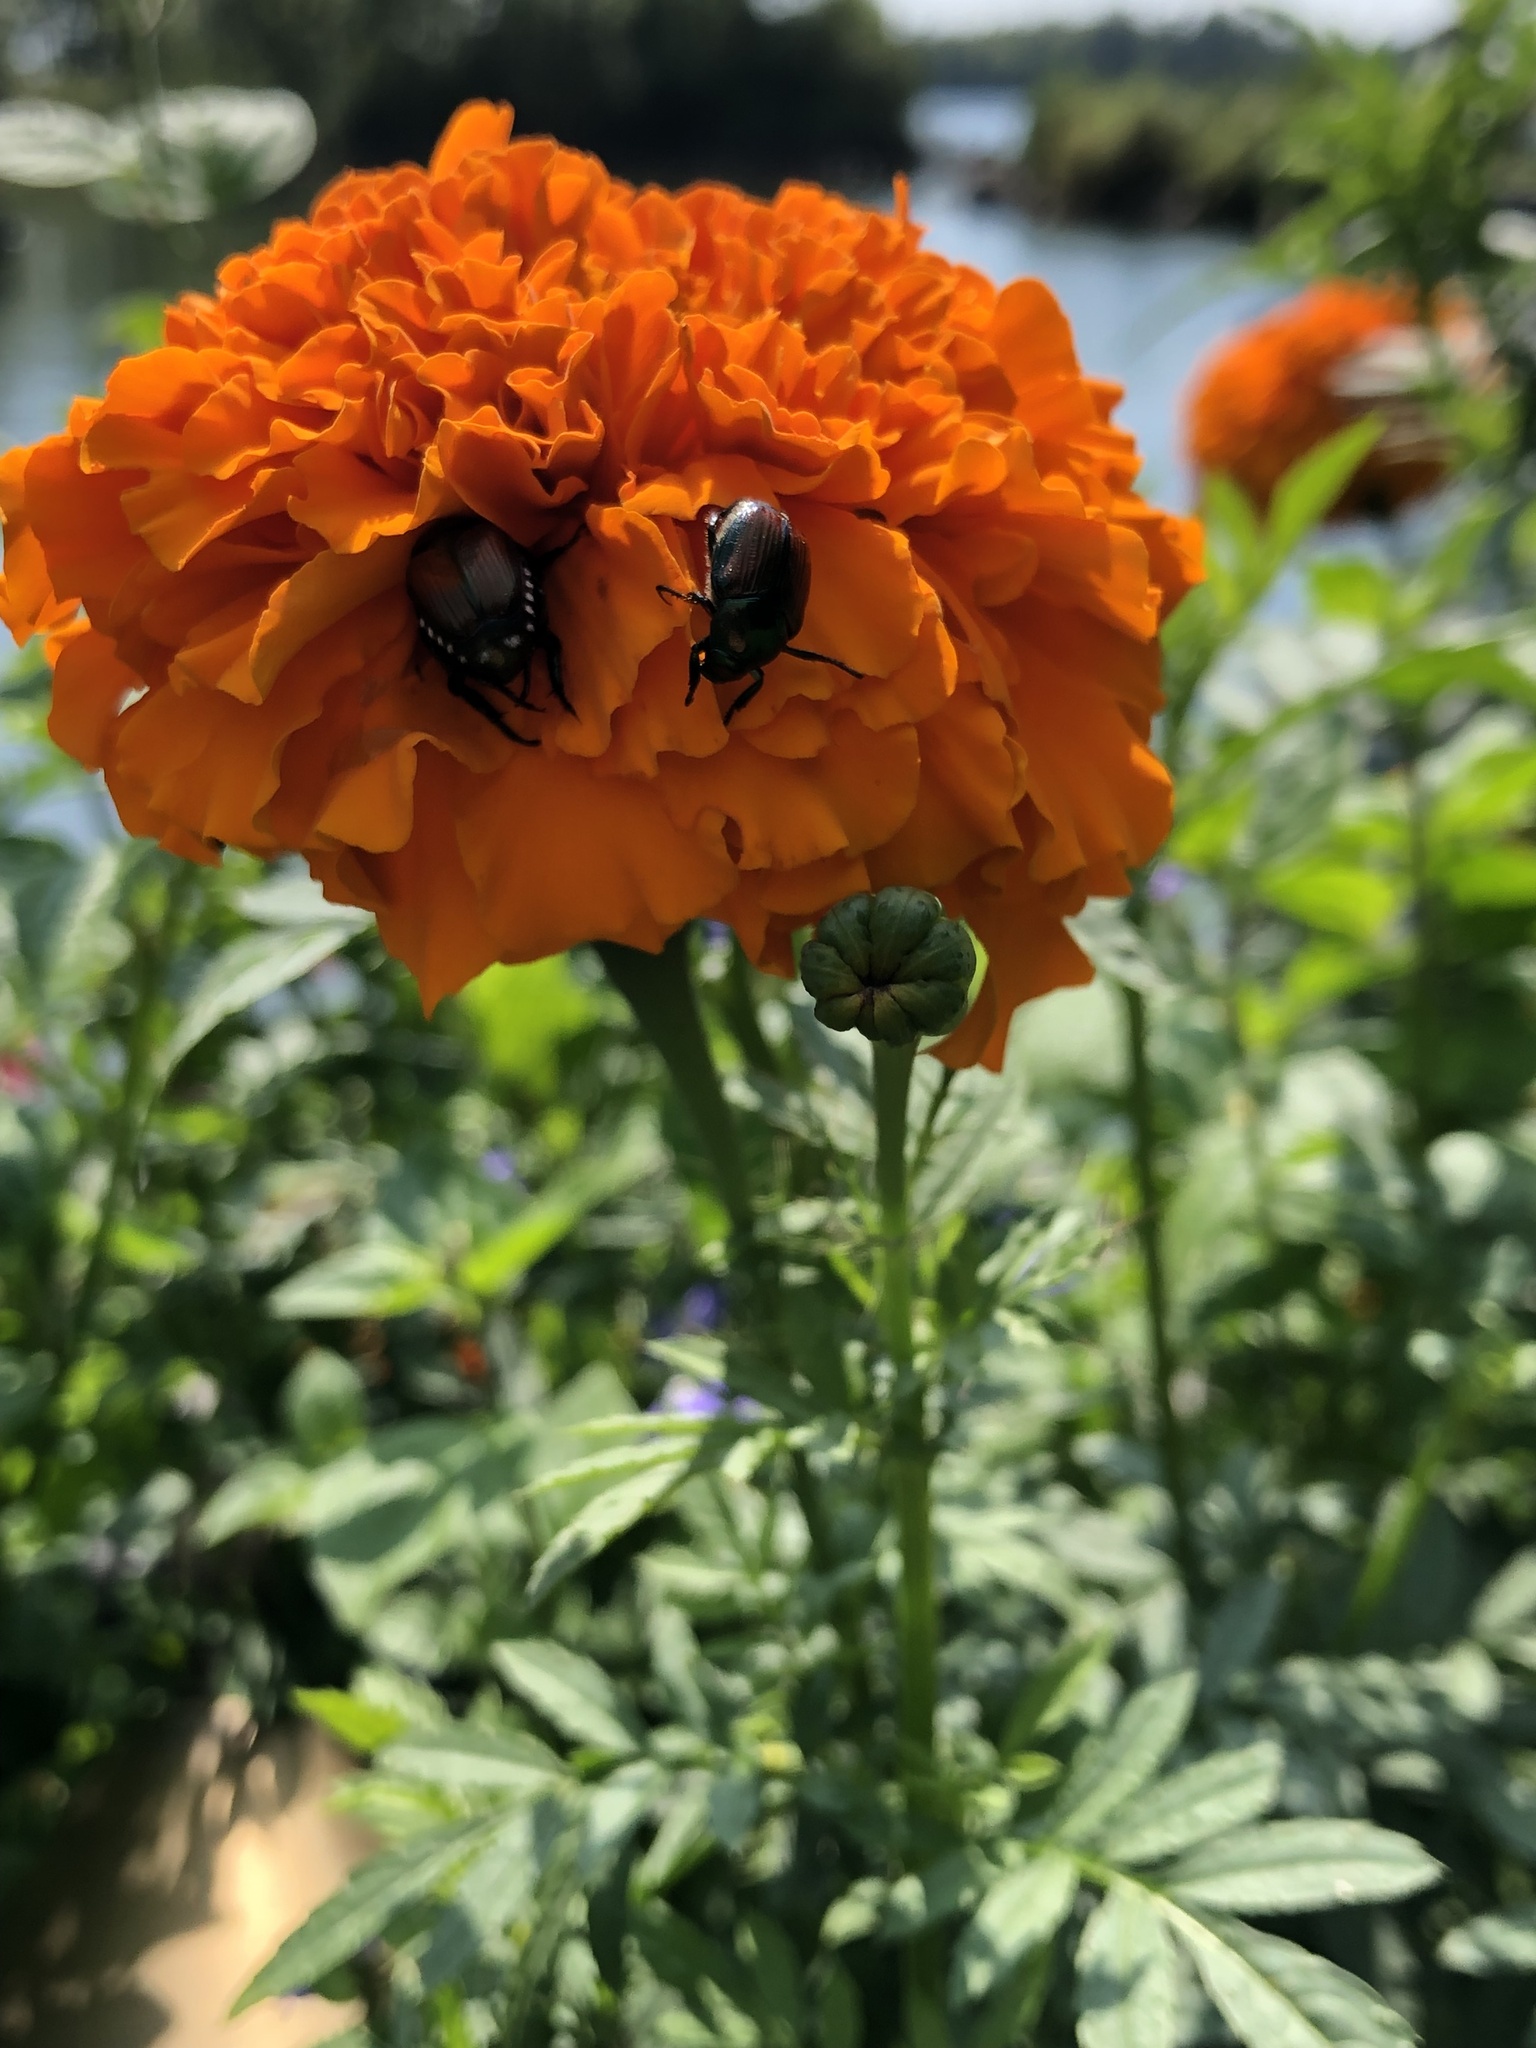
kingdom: Animalia
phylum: Arthropoda
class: Insecta
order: Coleoptera
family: Scarabaeidae
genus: Popillia
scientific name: Popillia japonica
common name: Japanese beetle
